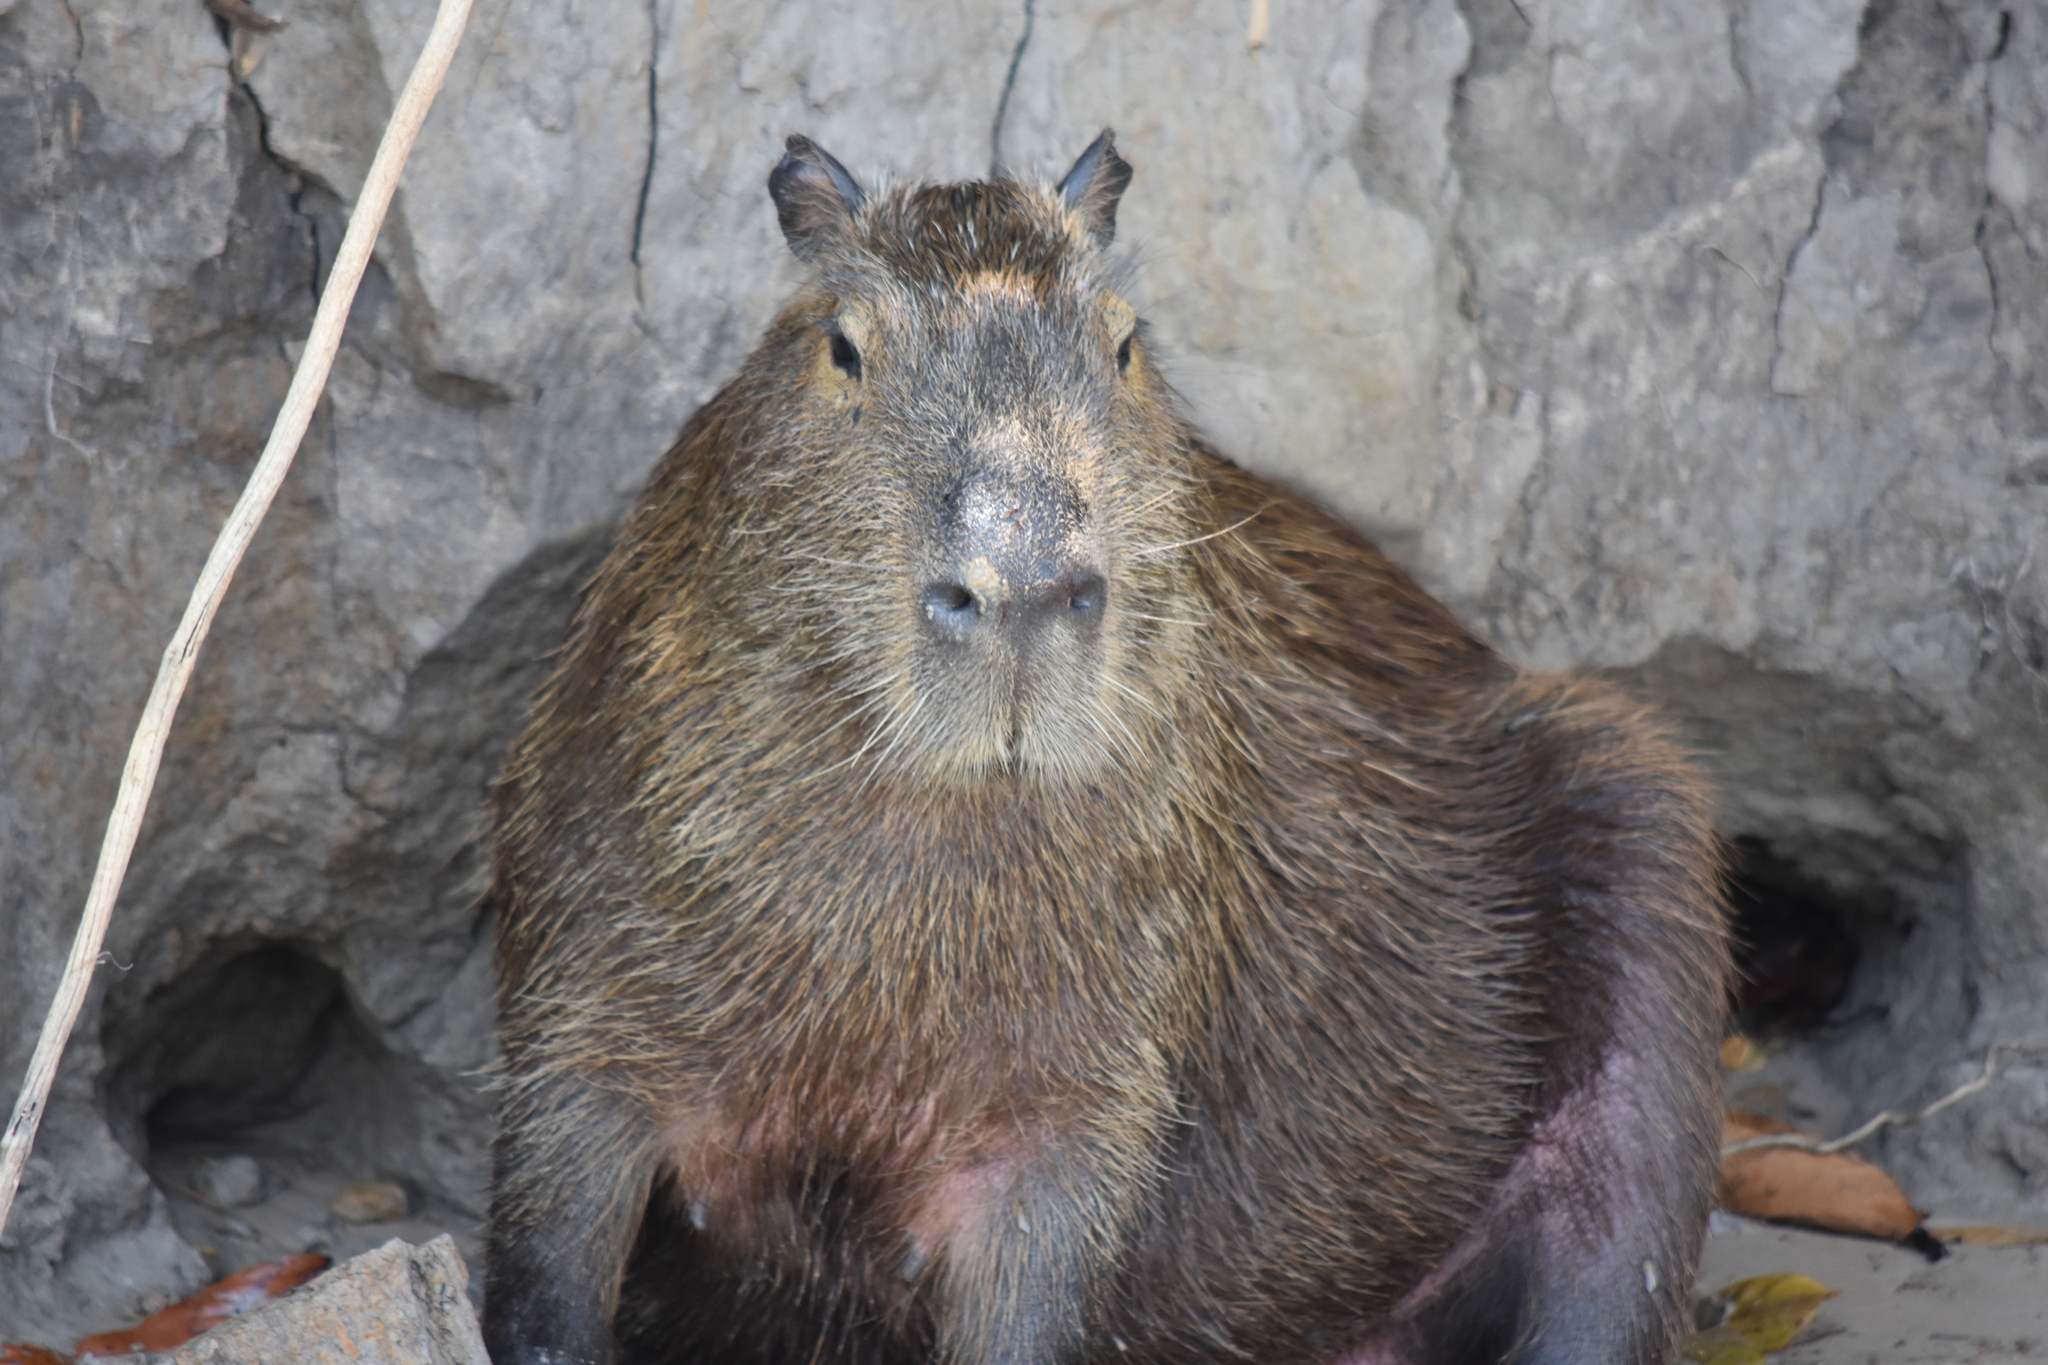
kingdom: Animalia
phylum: Chordata
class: Mammalia
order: Rodentia
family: Caviidae
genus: Hydrochoerus
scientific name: Hydrochoerus hydrochaeris
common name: Capybara
